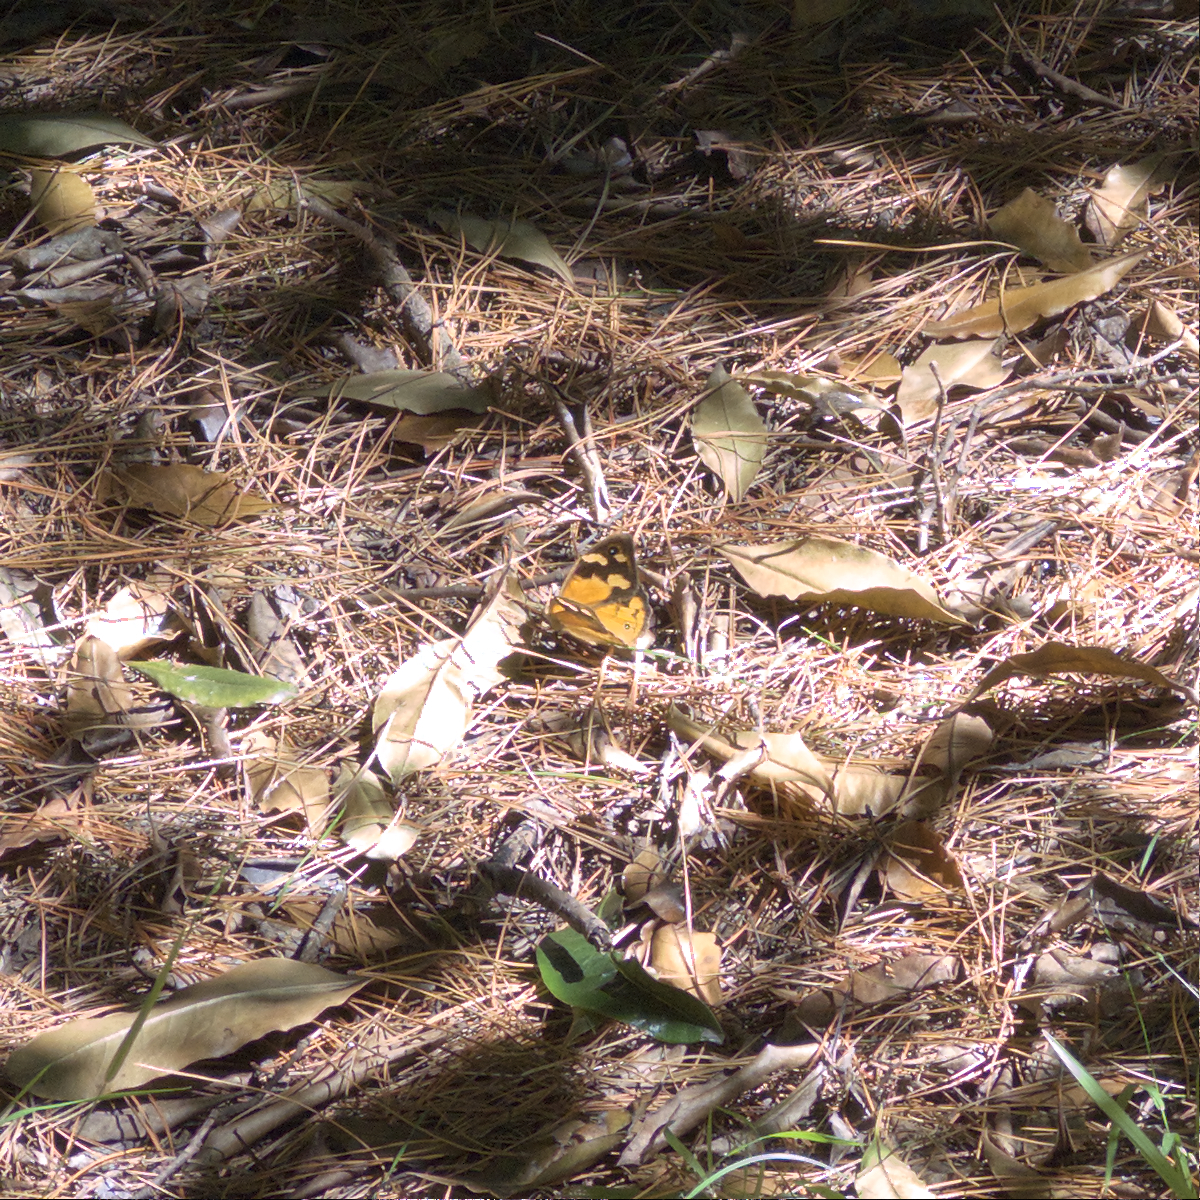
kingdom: Animalia
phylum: Arthropoda
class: Insecta
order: Lepidoptera
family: Nymphalidae
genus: Heteronympha
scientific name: Heteronympha merope
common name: Common brown
